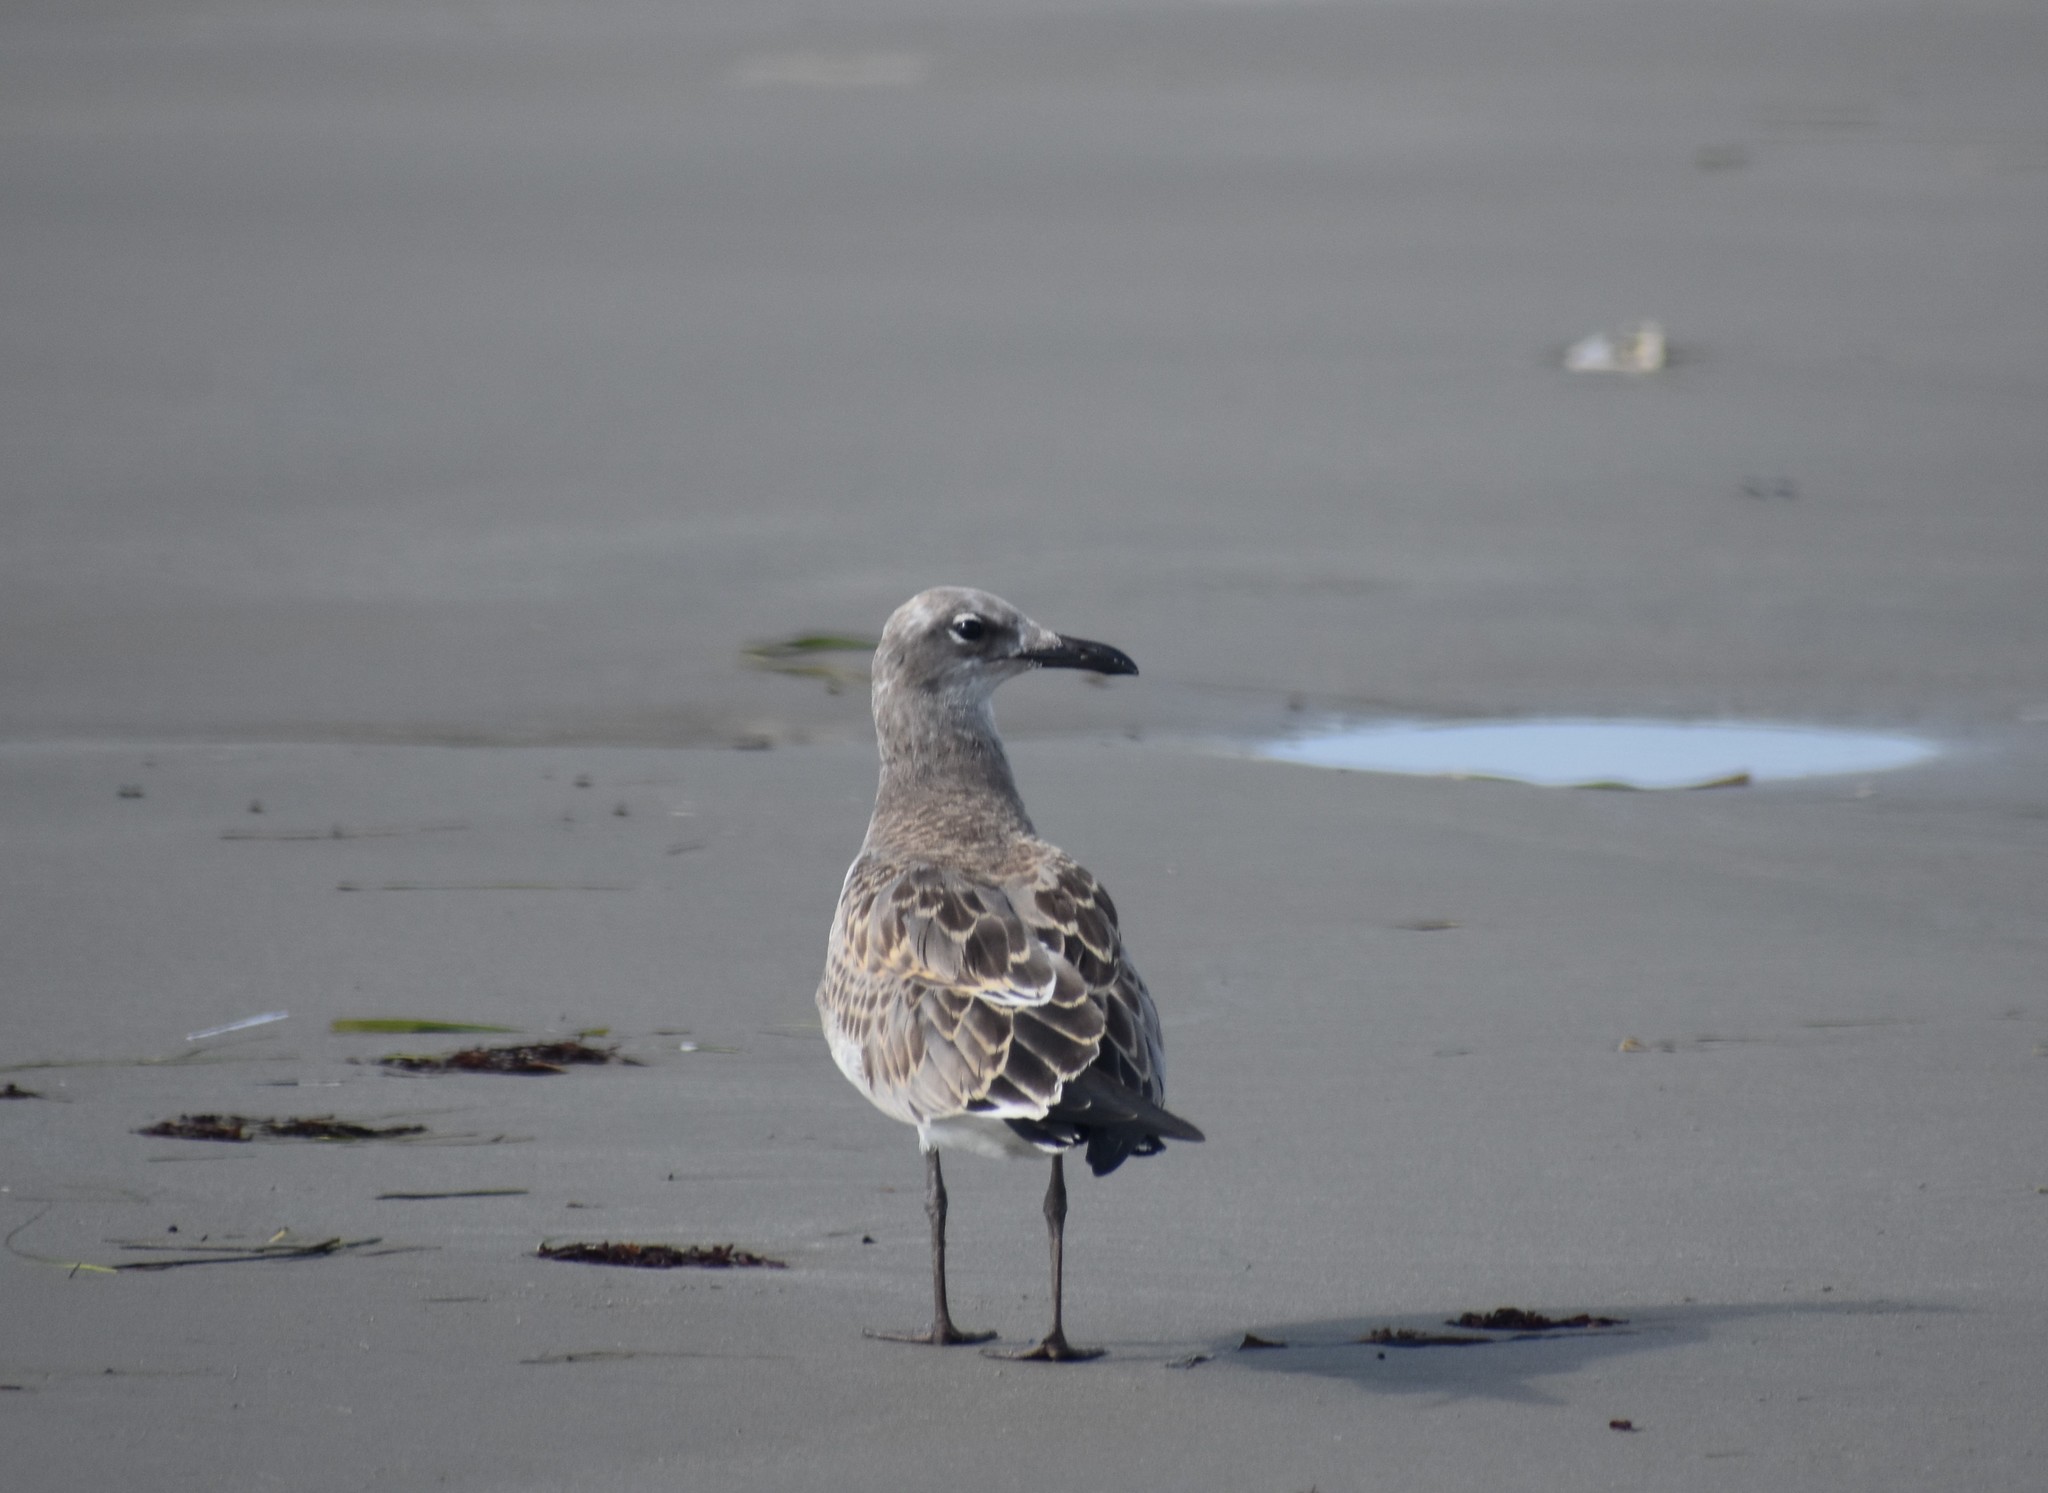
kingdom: Animalia
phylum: Chordata
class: Aves
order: Charadriiformes
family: Laridae
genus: Leucophaeus
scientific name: Leucophaeus atricilla
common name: Laughing gull
